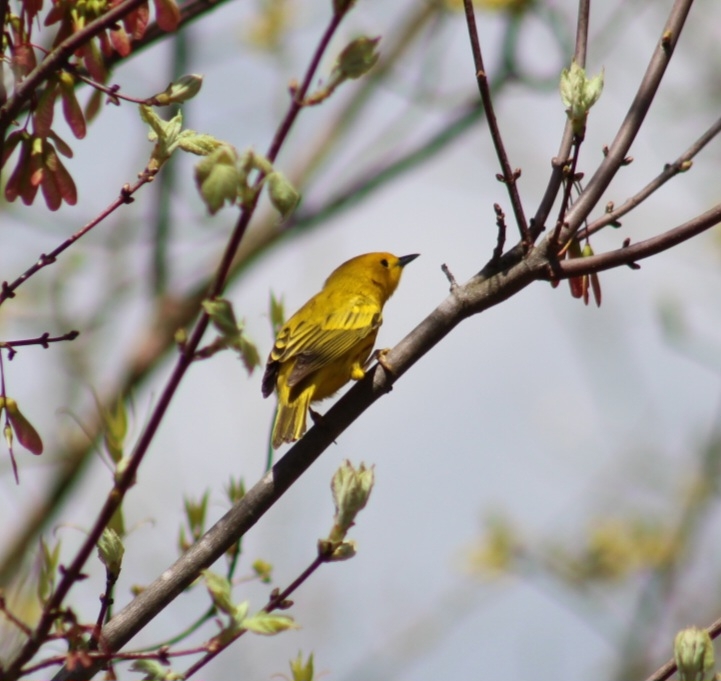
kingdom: Animalia
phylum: Chordata
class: Aves
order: Passeriformes
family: Parulidae
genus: Setophaga
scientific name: Setophaga petechia
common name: Yellow warbler
